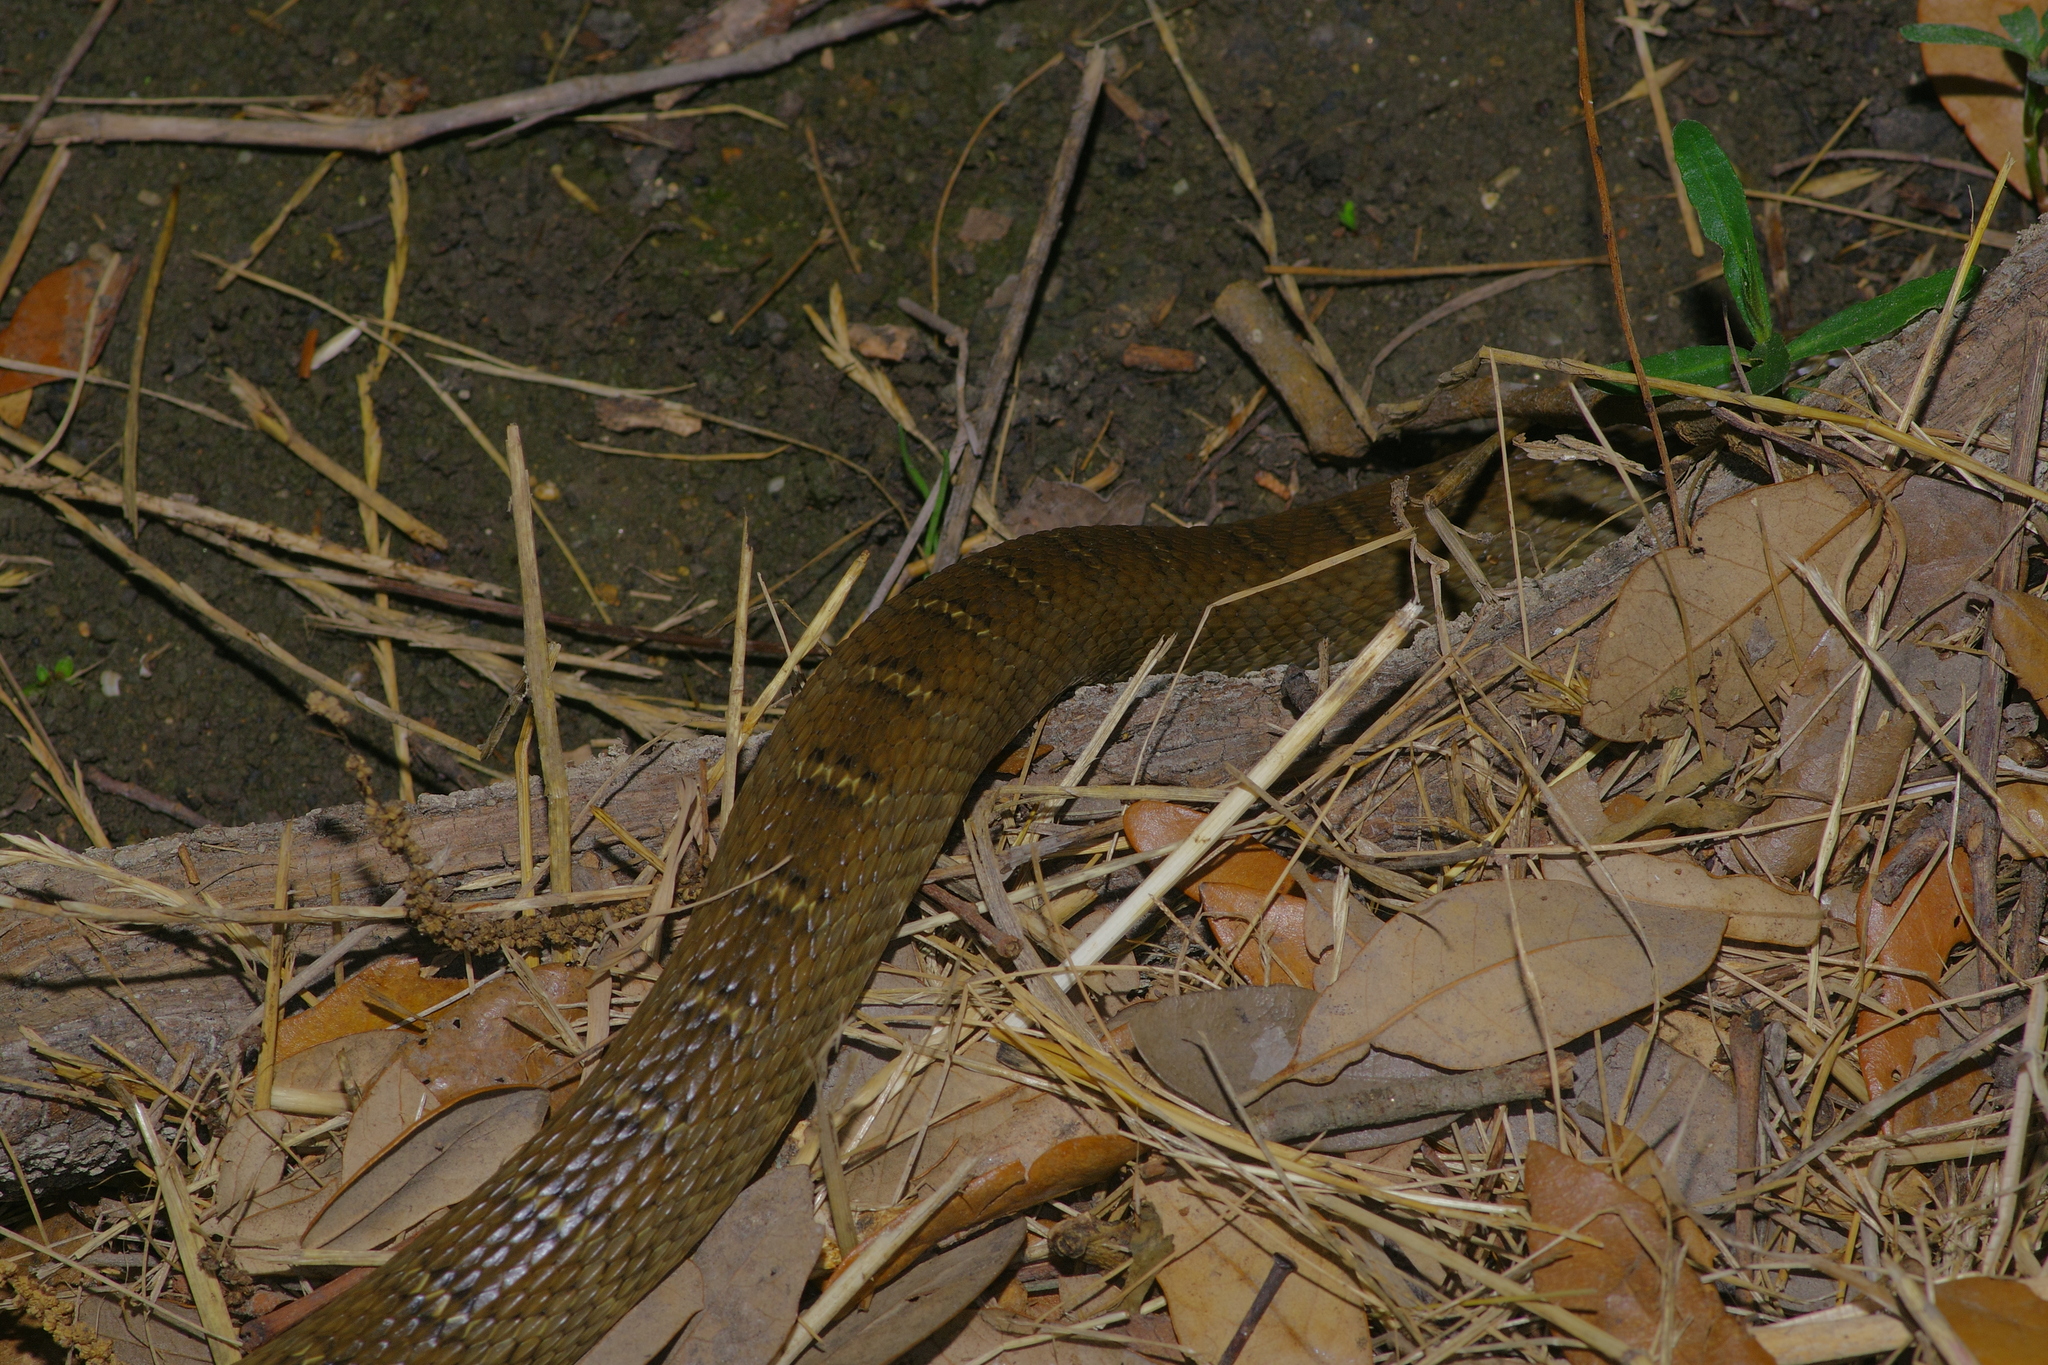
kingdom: Animalia
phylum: Chordata
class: Squamata
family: Colubridae
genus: Nerodia
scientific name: Nerodia erythrogaster
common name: Plainbelly water snake
